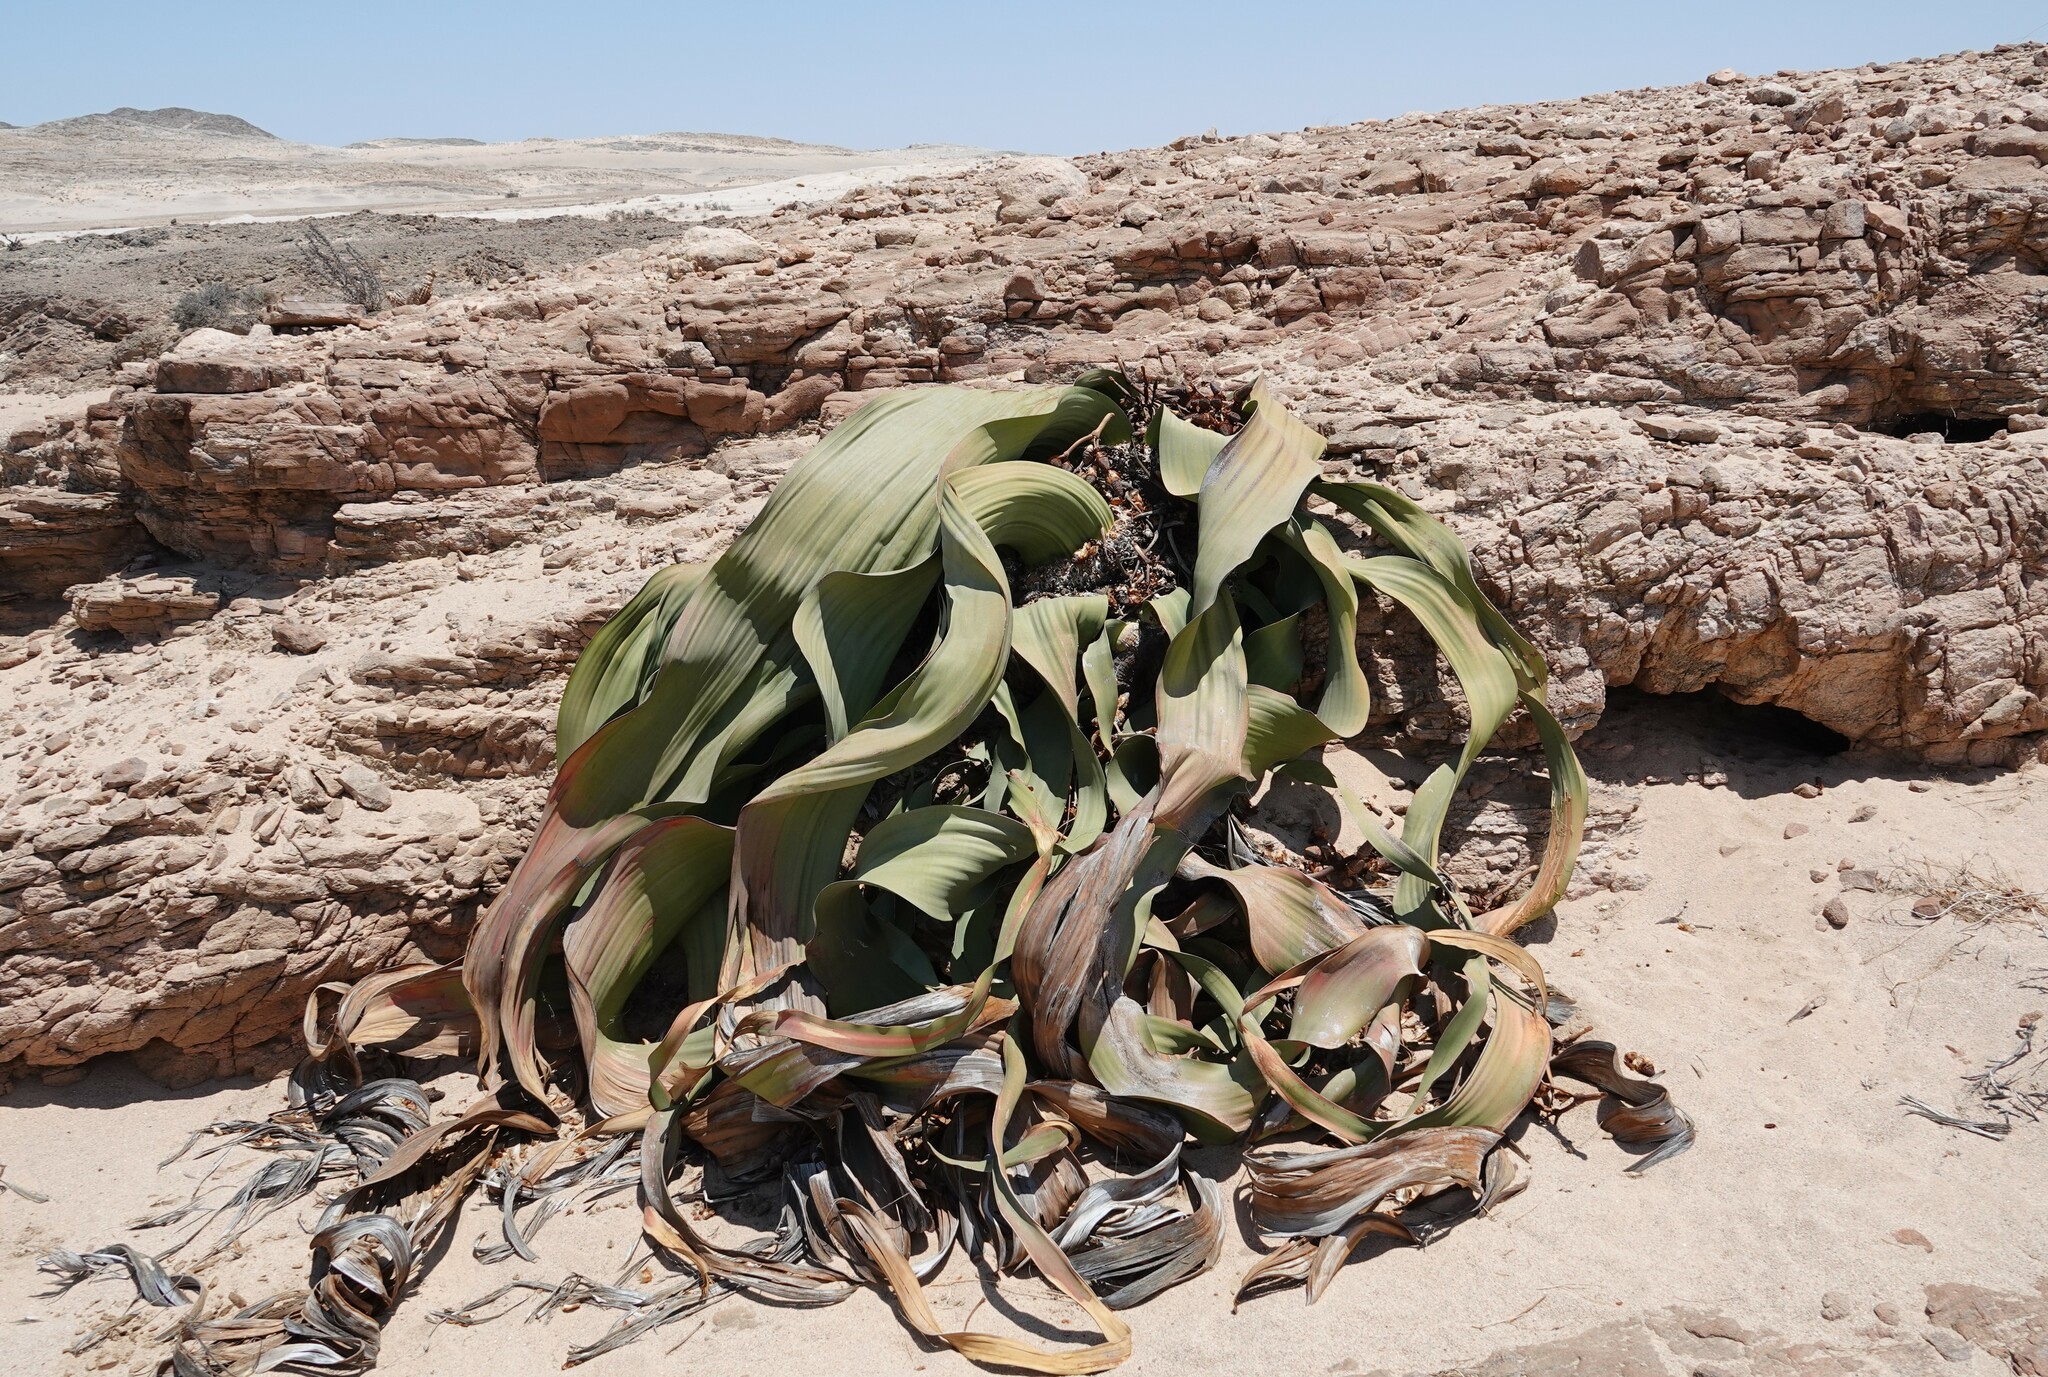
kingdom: Plantae
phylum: Tracheophyta
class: Gnetopsida
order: Welwitschiales
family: Welwitschiaceae
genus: Welwitschia
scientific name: Welwitschia mirabilis
